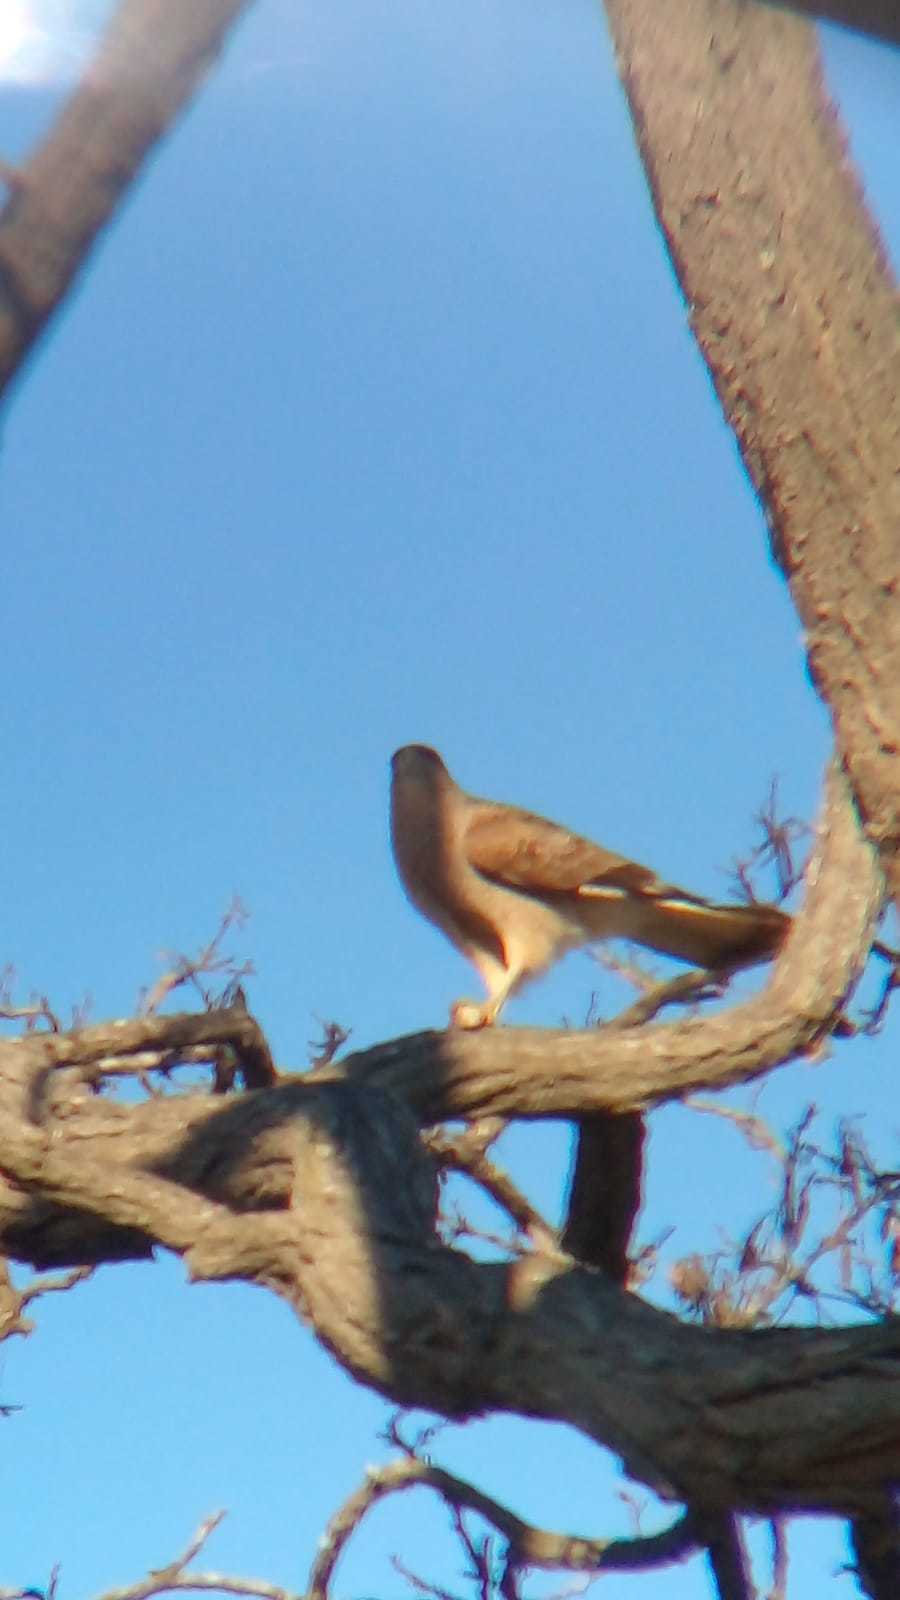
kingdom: Animalia
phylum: Chordata
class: Aves
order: Falconiformes
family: Falconidae
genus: Daptrius
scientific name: Daptrius
